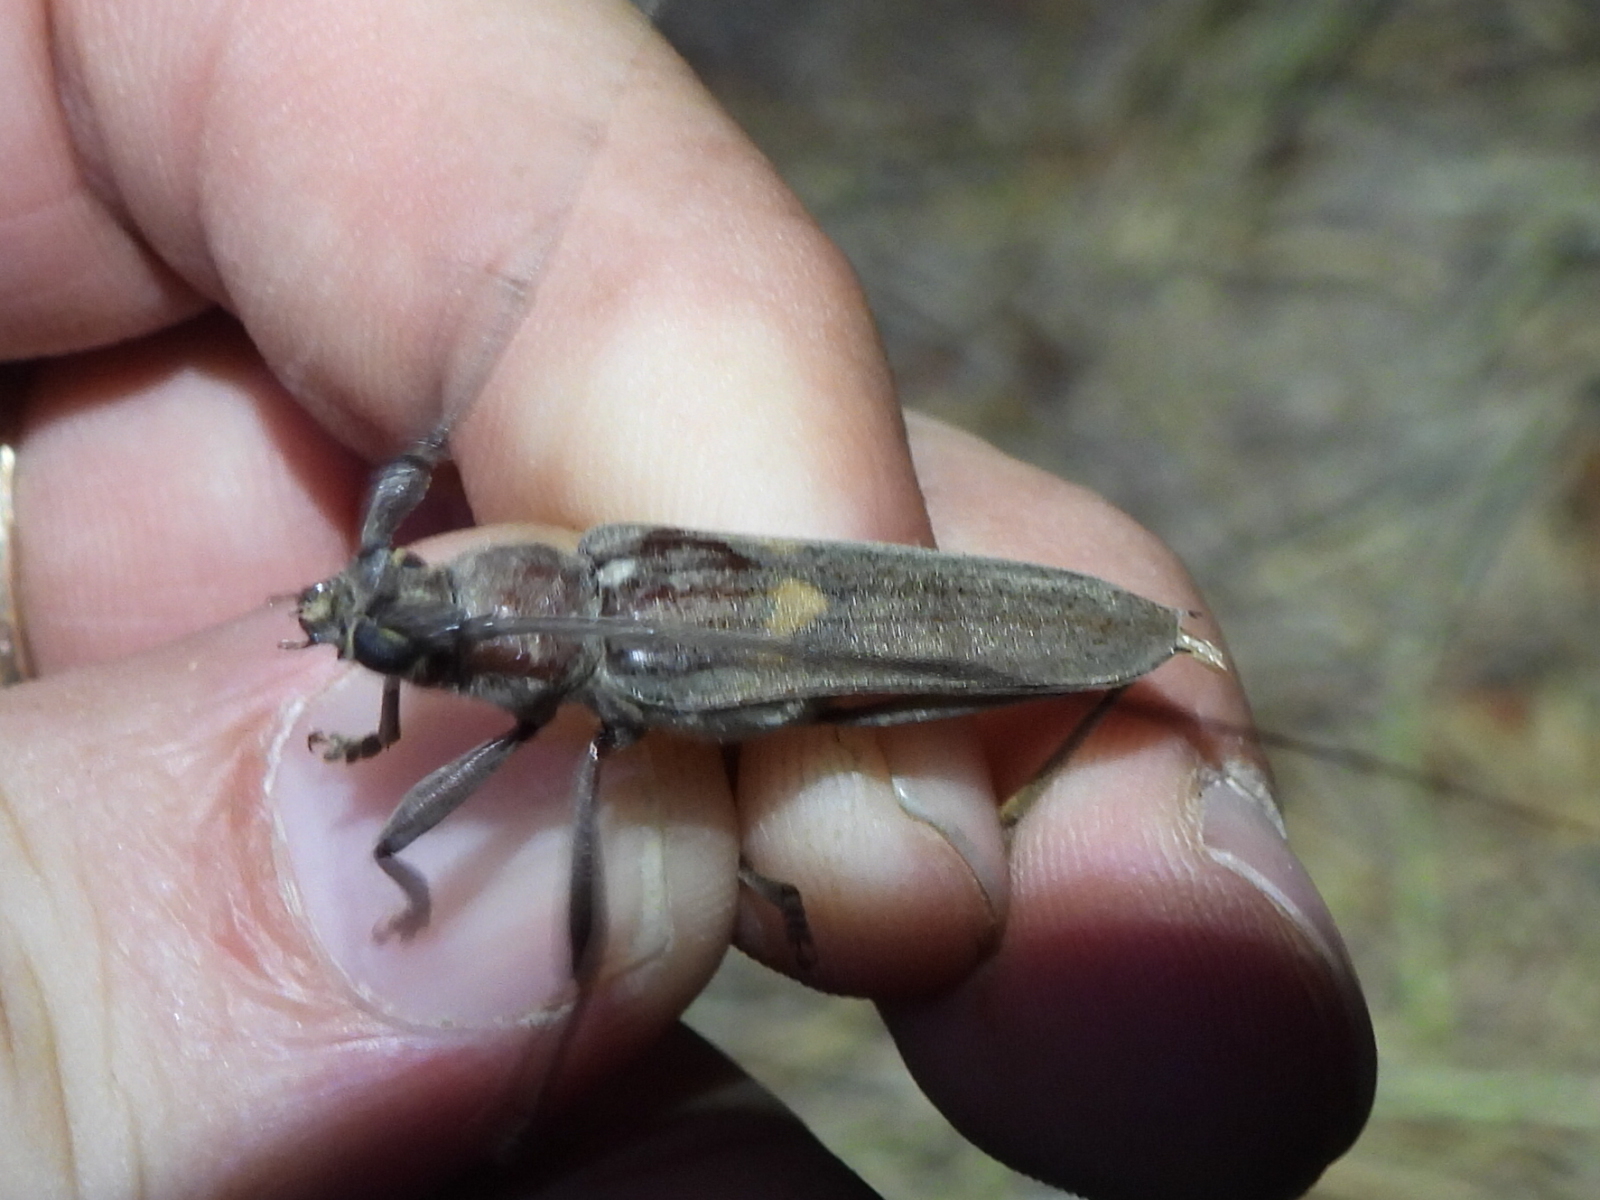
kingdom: Animalia
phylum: Arthropoda
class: Insecta
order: Coleoptera
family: Cerambycidae
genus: Knulliana
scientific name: Knulliana cincta
